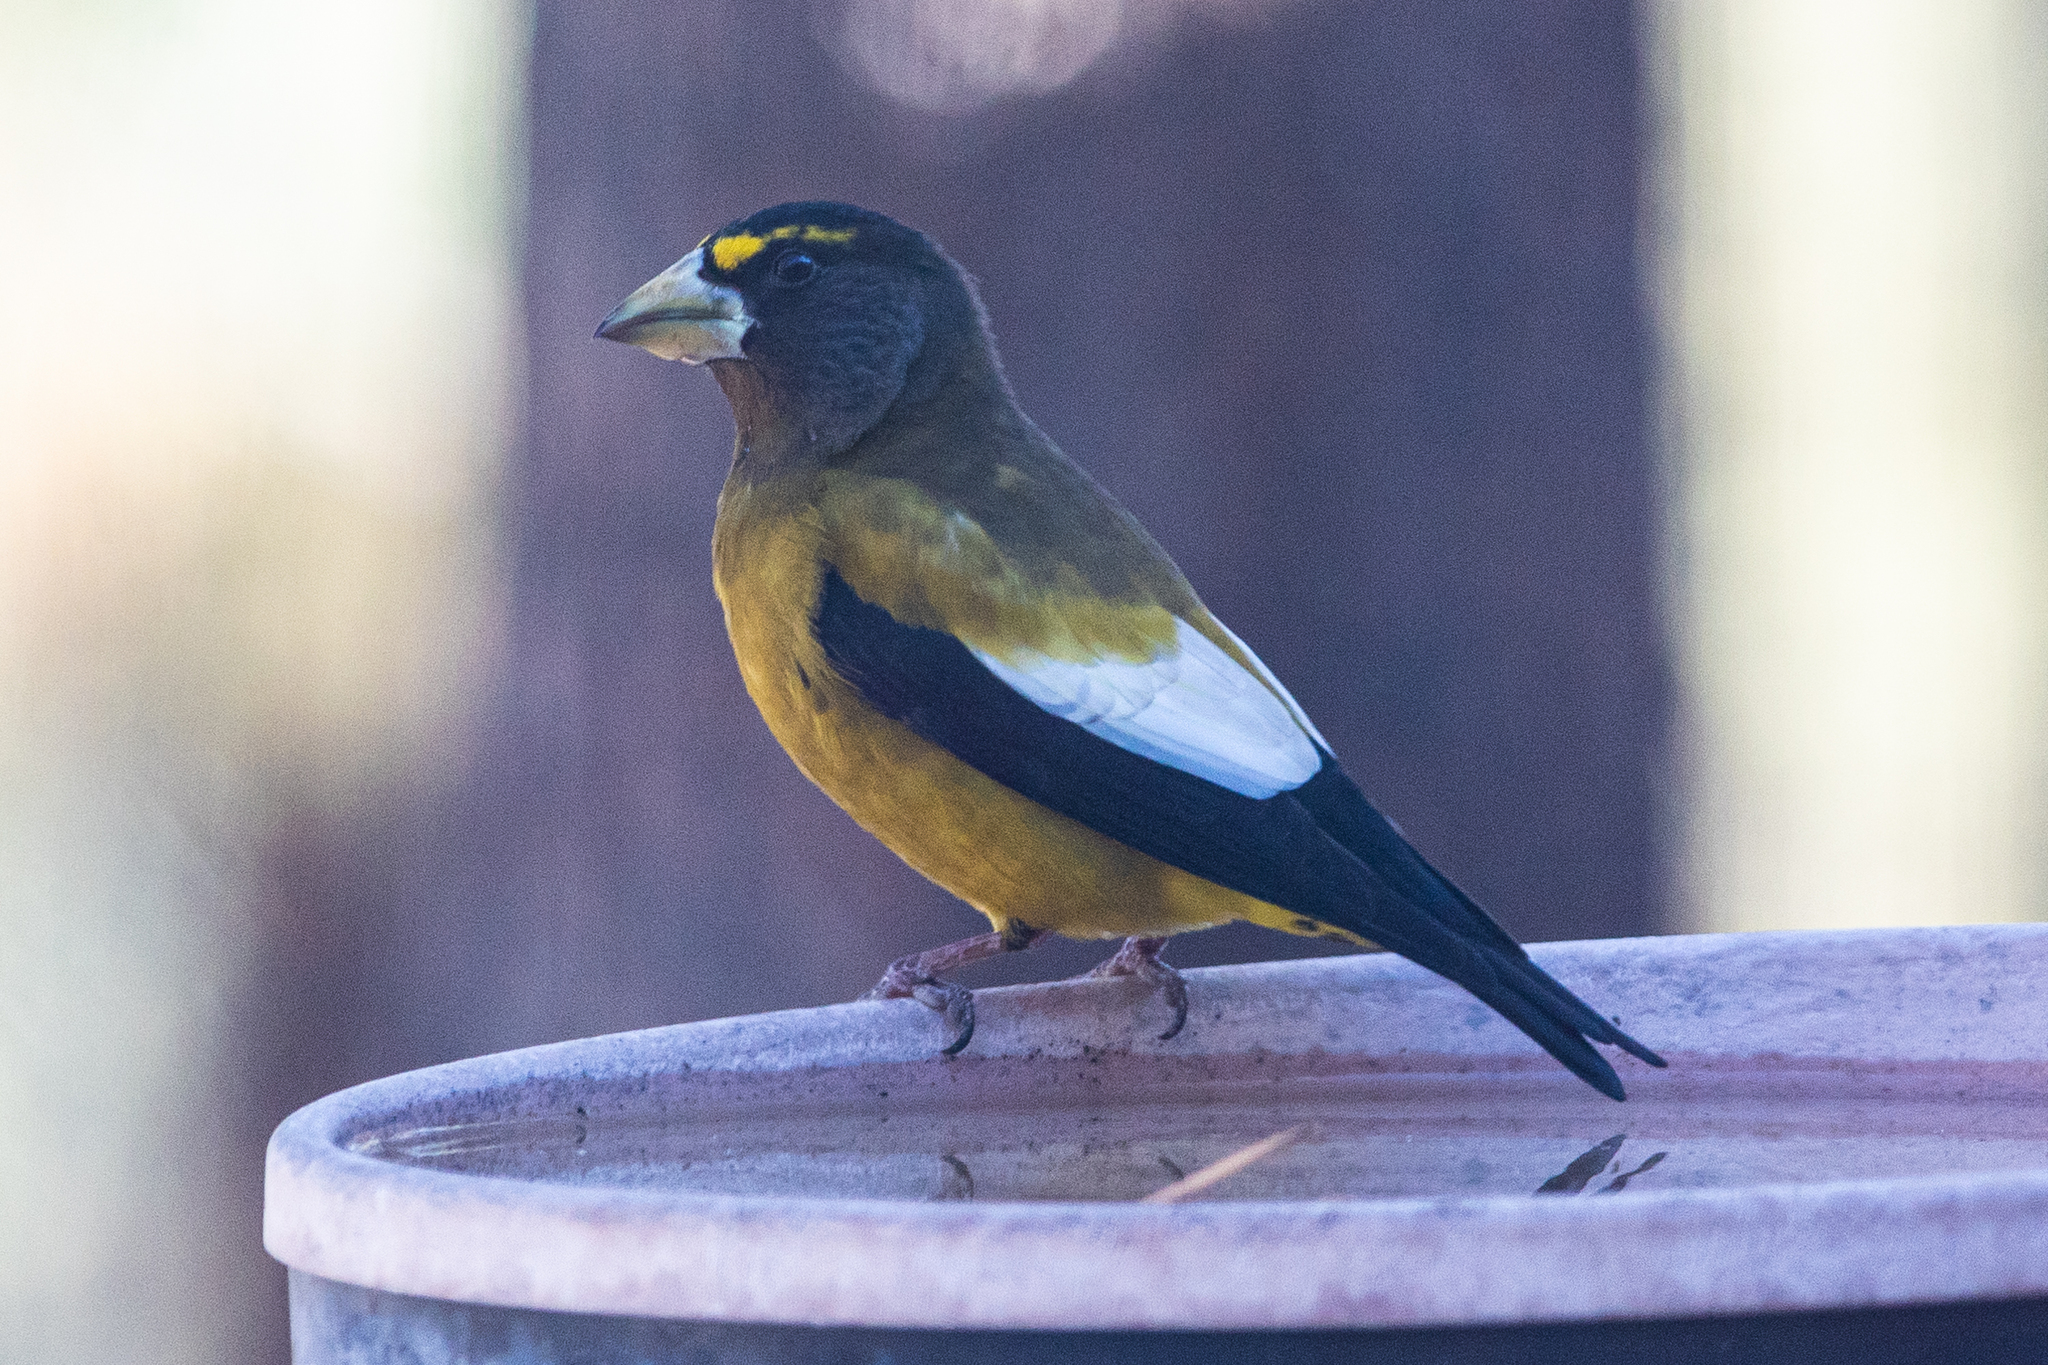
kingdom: Animalia
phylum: Chordata
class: Aves
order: Passeriformes
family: Fringillidae
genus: Hesperiphona
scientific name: Hesperiphona vespertina
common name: Evening grosbeak
